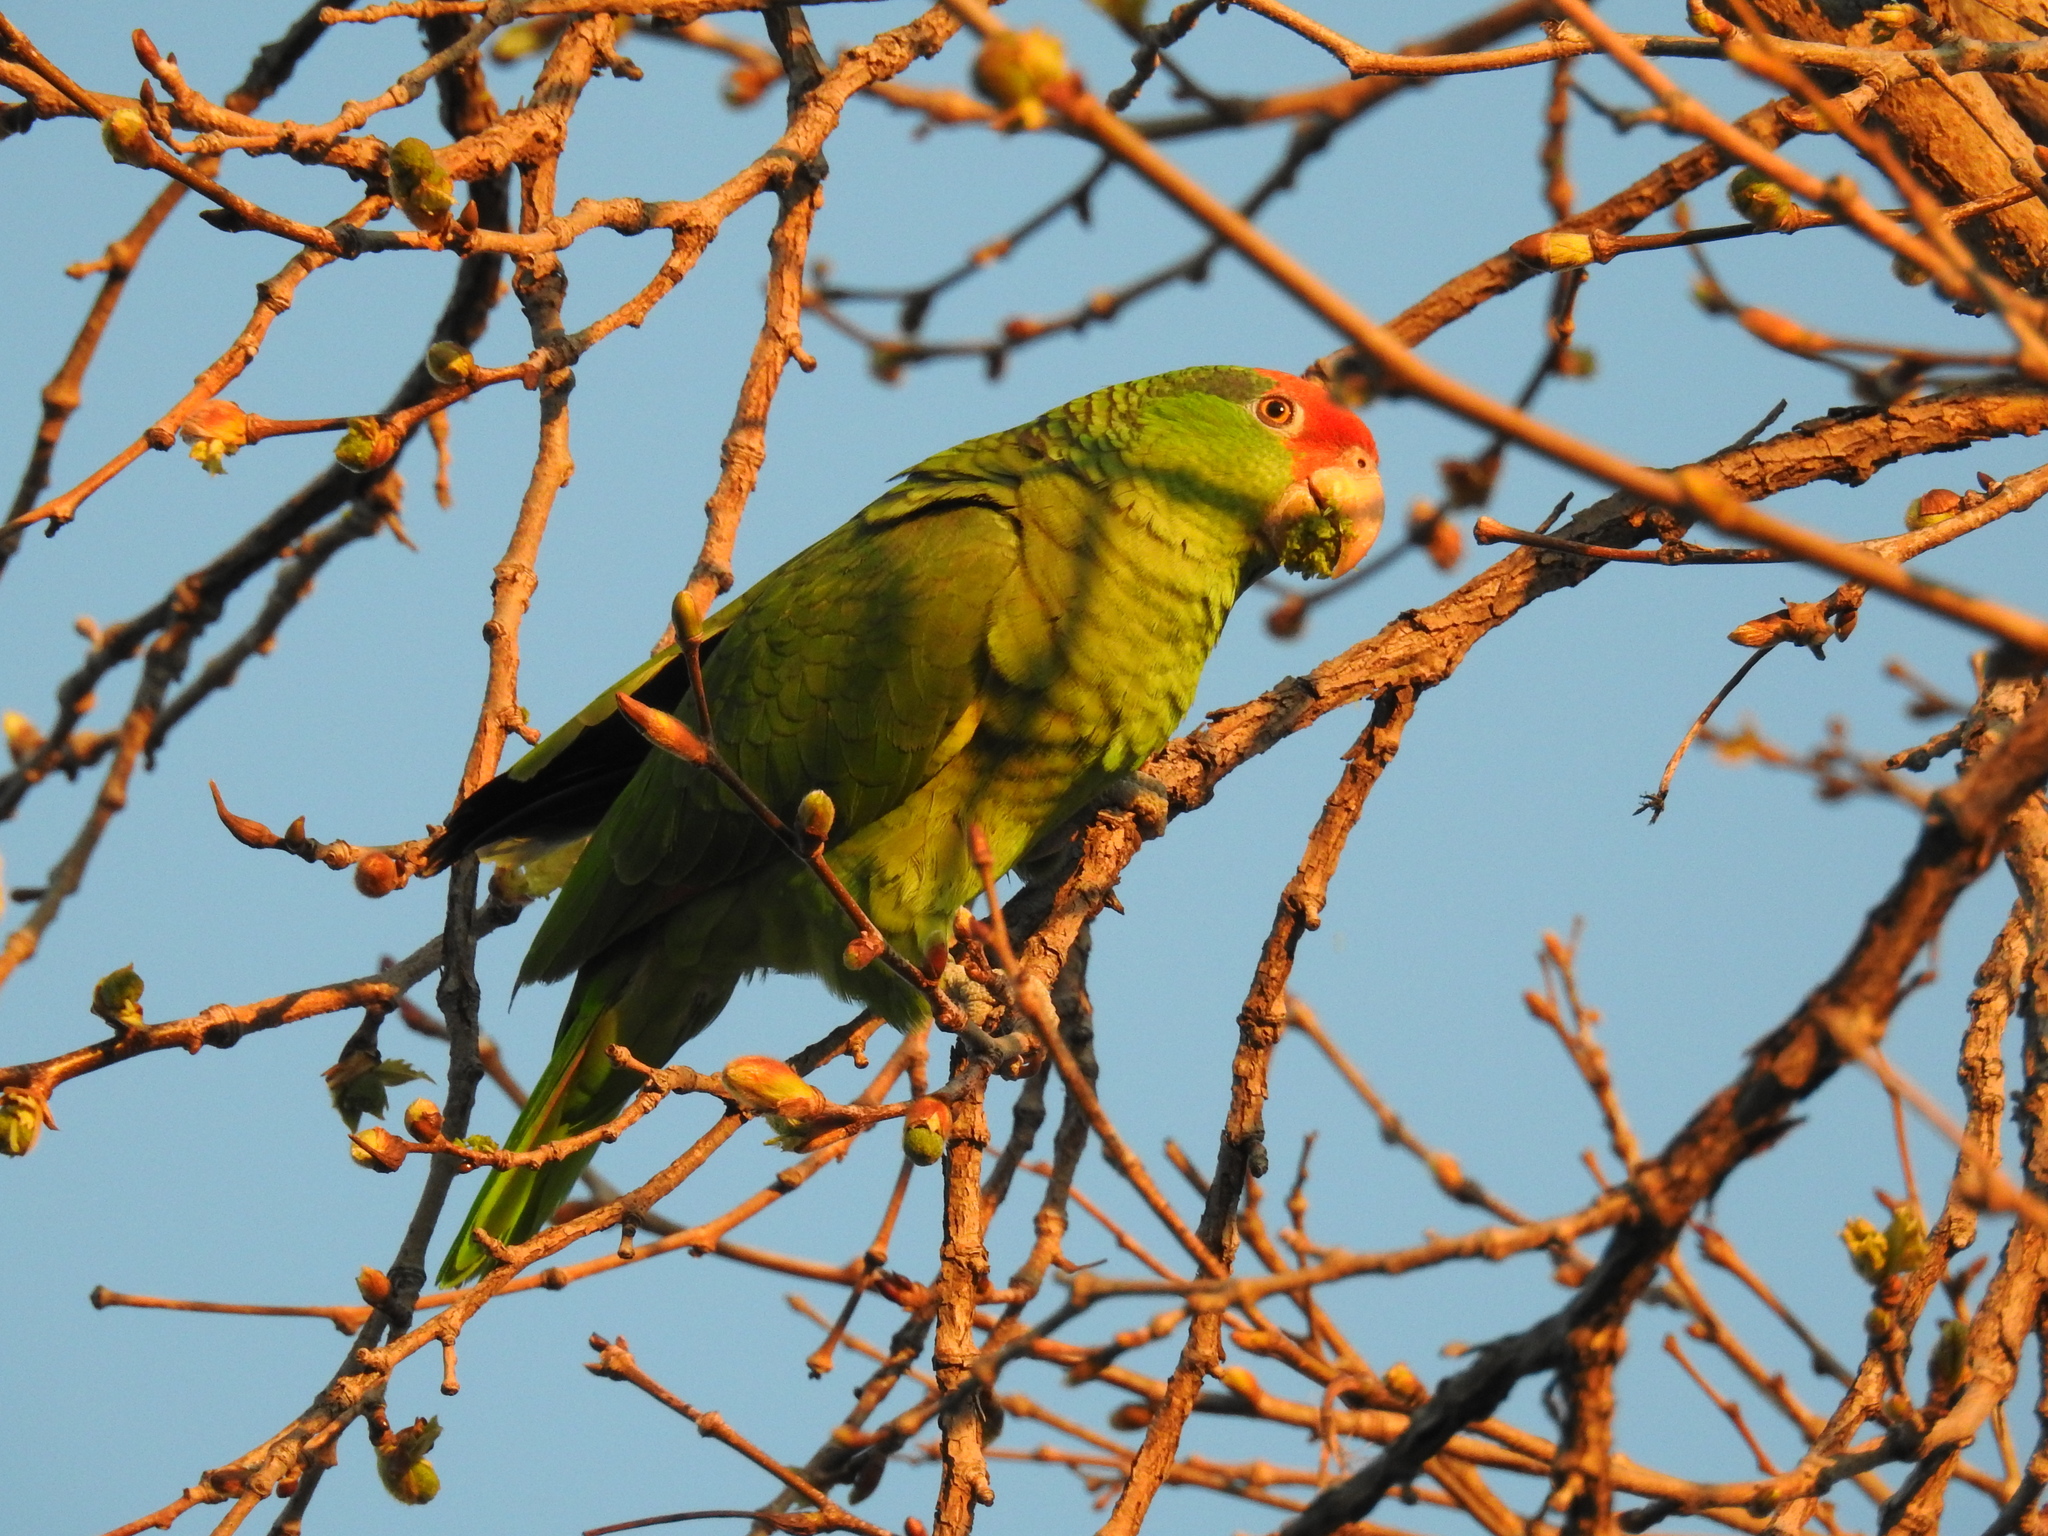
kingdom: Animalia
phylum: Chordata
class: Aves
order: Psittaciformes
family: Psittacidae
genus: Amazona
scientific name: Amazona viridigenalis
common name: Red-crowned amazon
